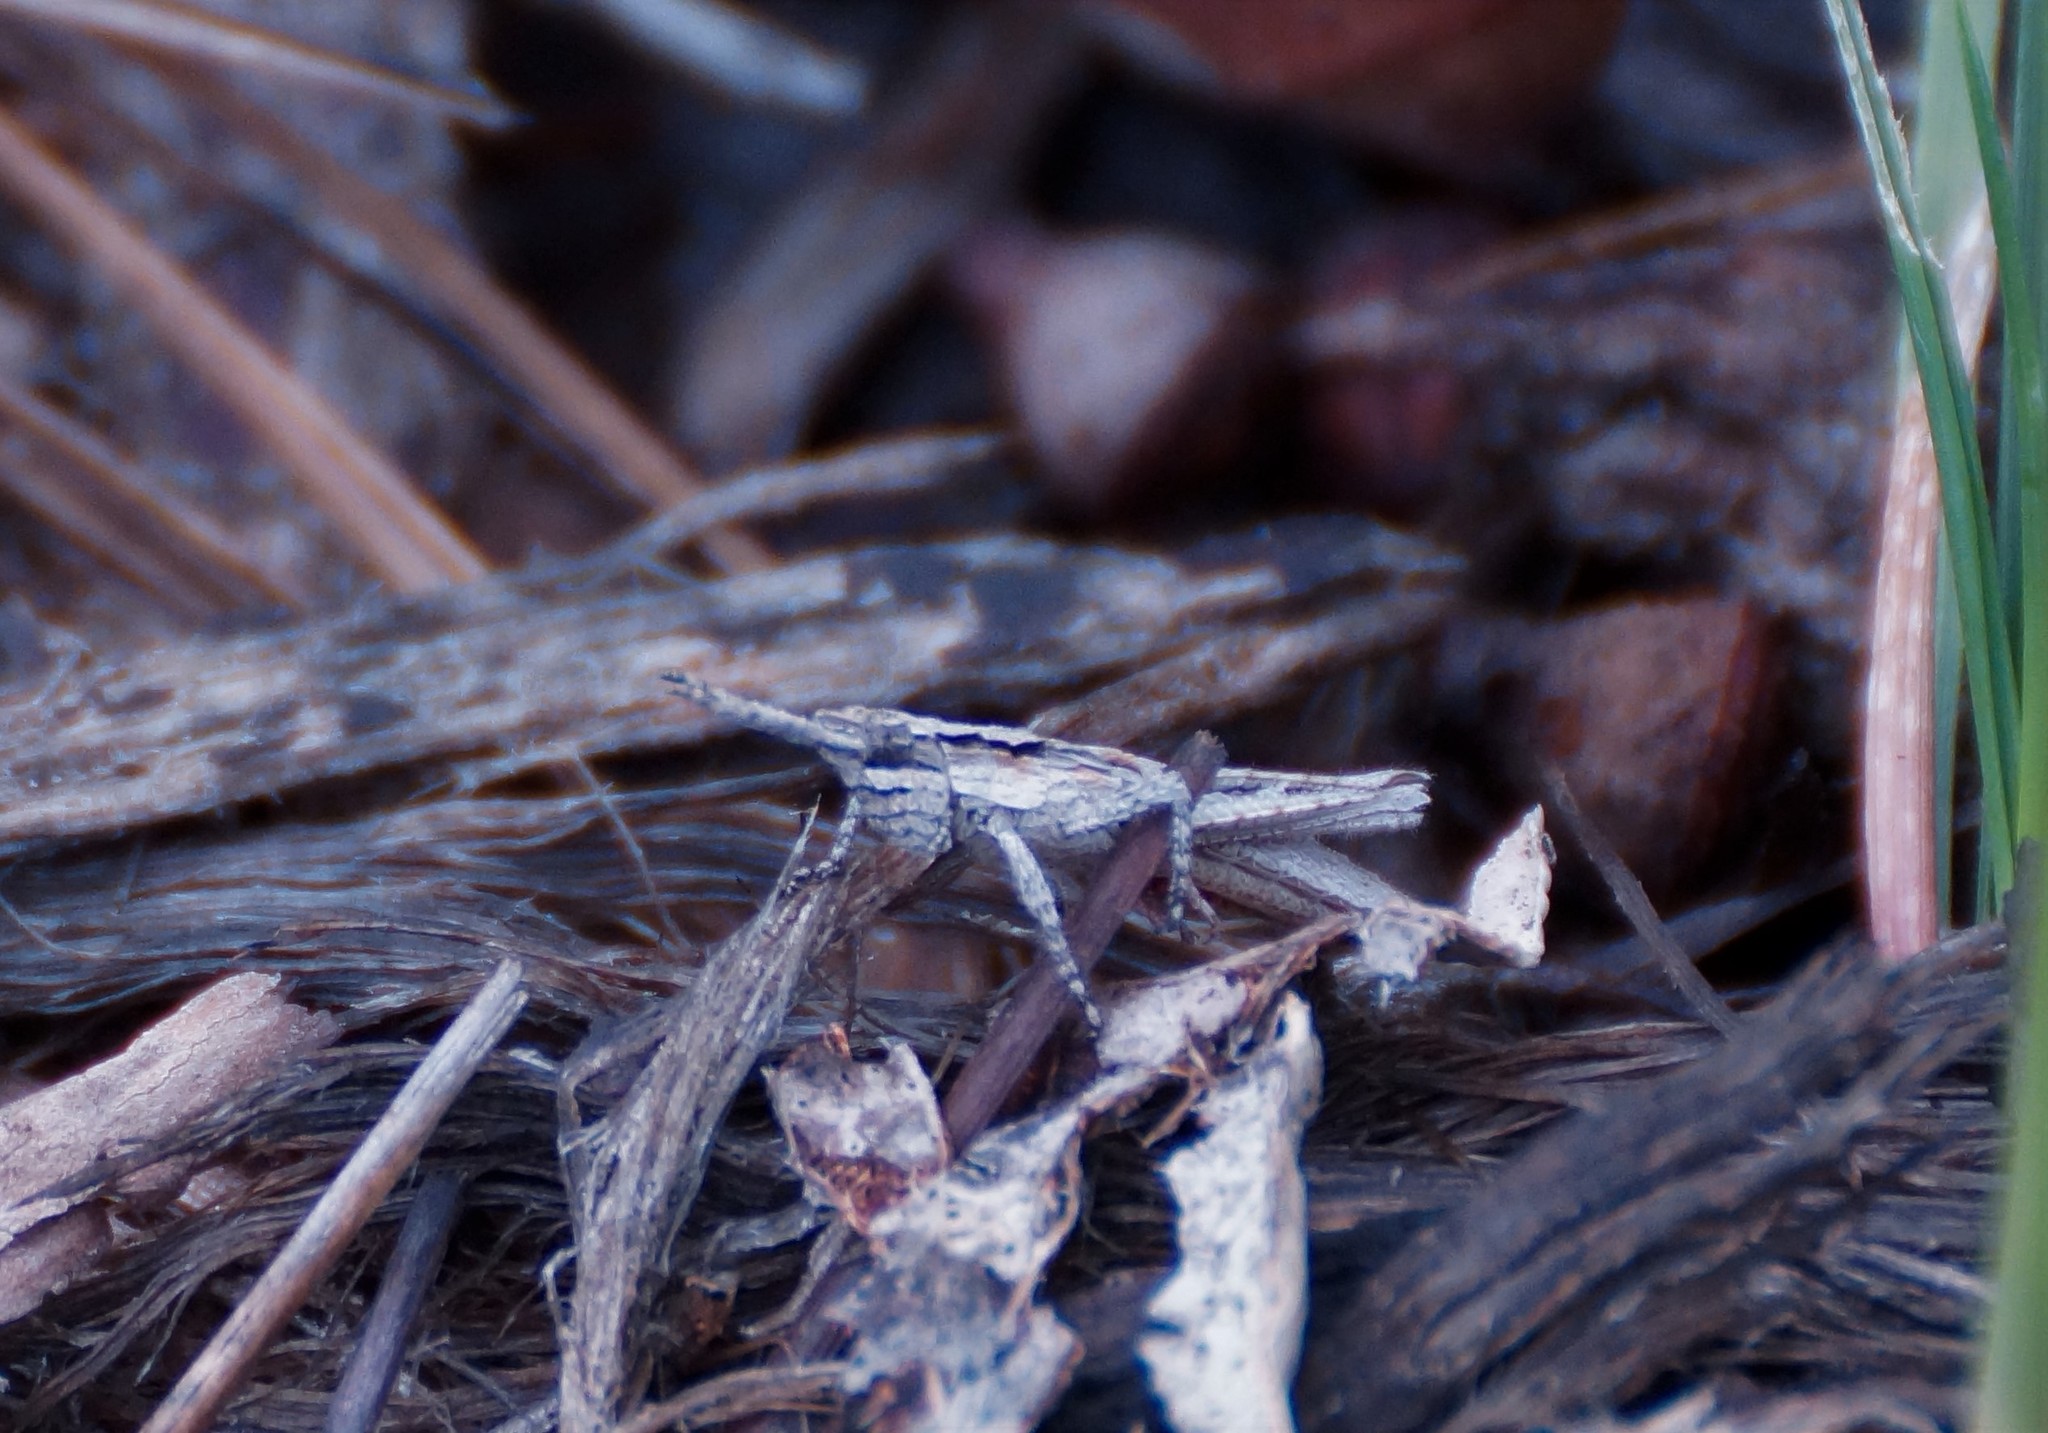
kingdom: Animalia
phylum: Arthropoda
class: Insecta
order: Orthoptera
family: Acrididae
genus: Coryphistes
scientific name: Coryphistes ruricola
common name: Bark-mimicking grasshopper
